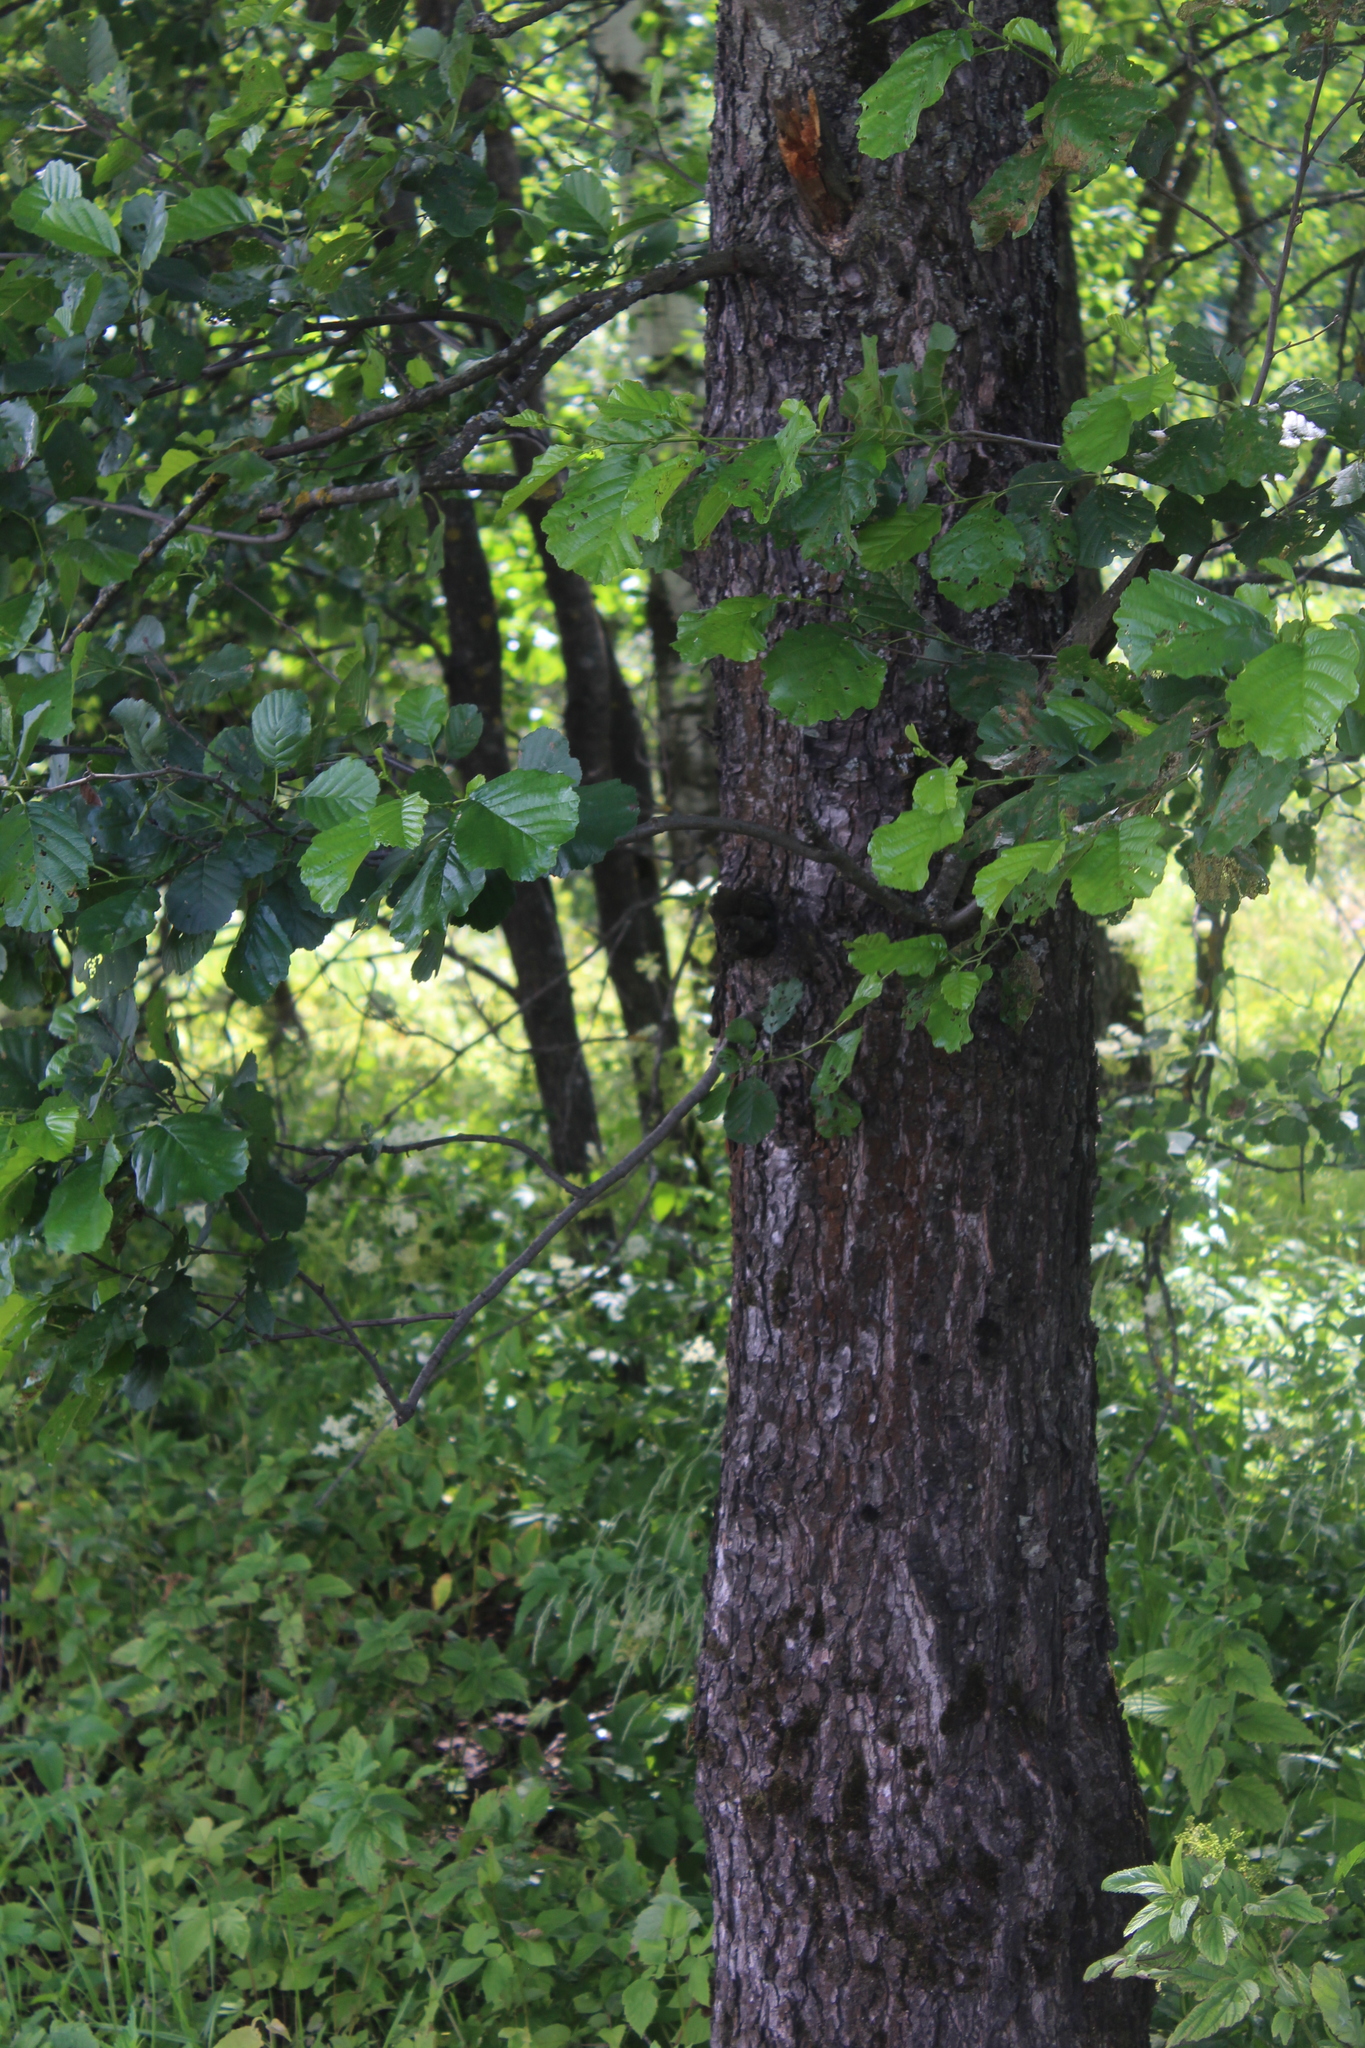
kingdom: Plantae
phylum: Tracheophyta
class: Magnoliopsida
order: Fagales
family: Betulaceae
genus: Alnus
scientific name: Alnus glutinosa
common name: Black alder
